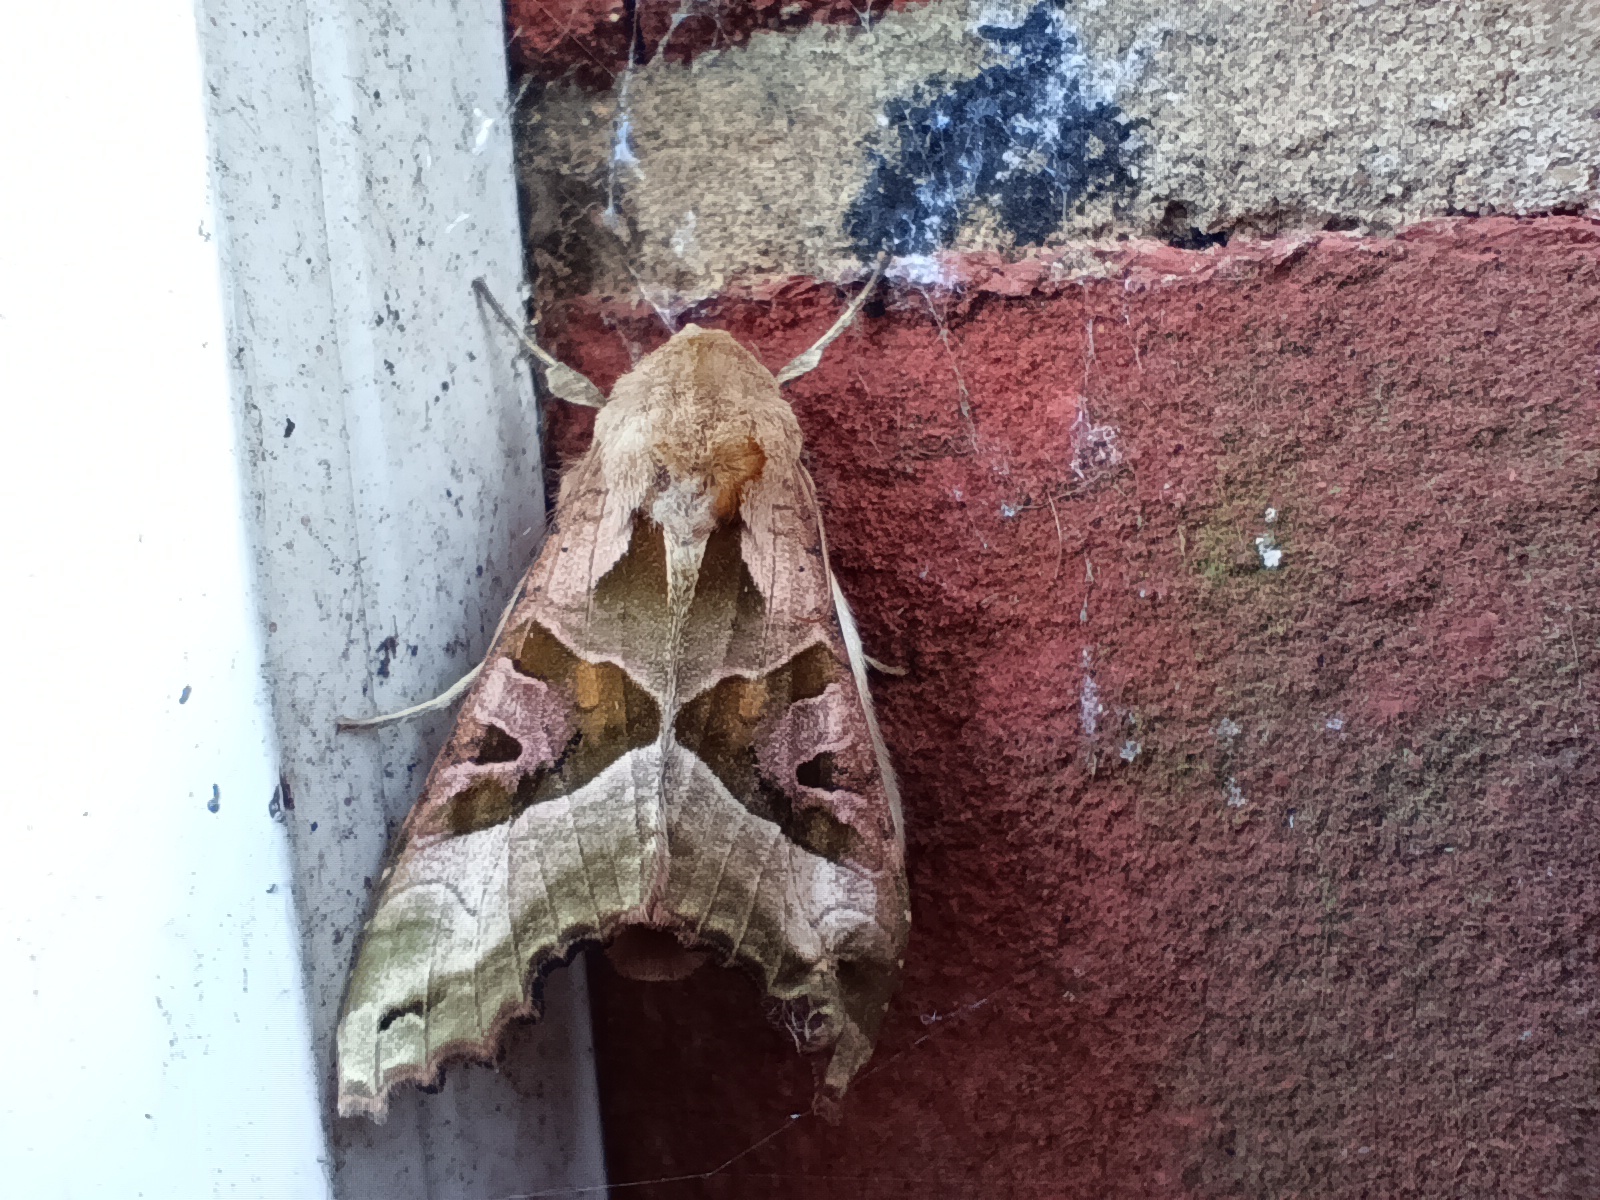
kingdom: Animalia
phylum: Arthropoda
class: Insecta
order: Lepidoptera
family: Noctuidae
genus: Phlogophora
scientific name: Phlogophora meticulosa
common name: Angle shades
